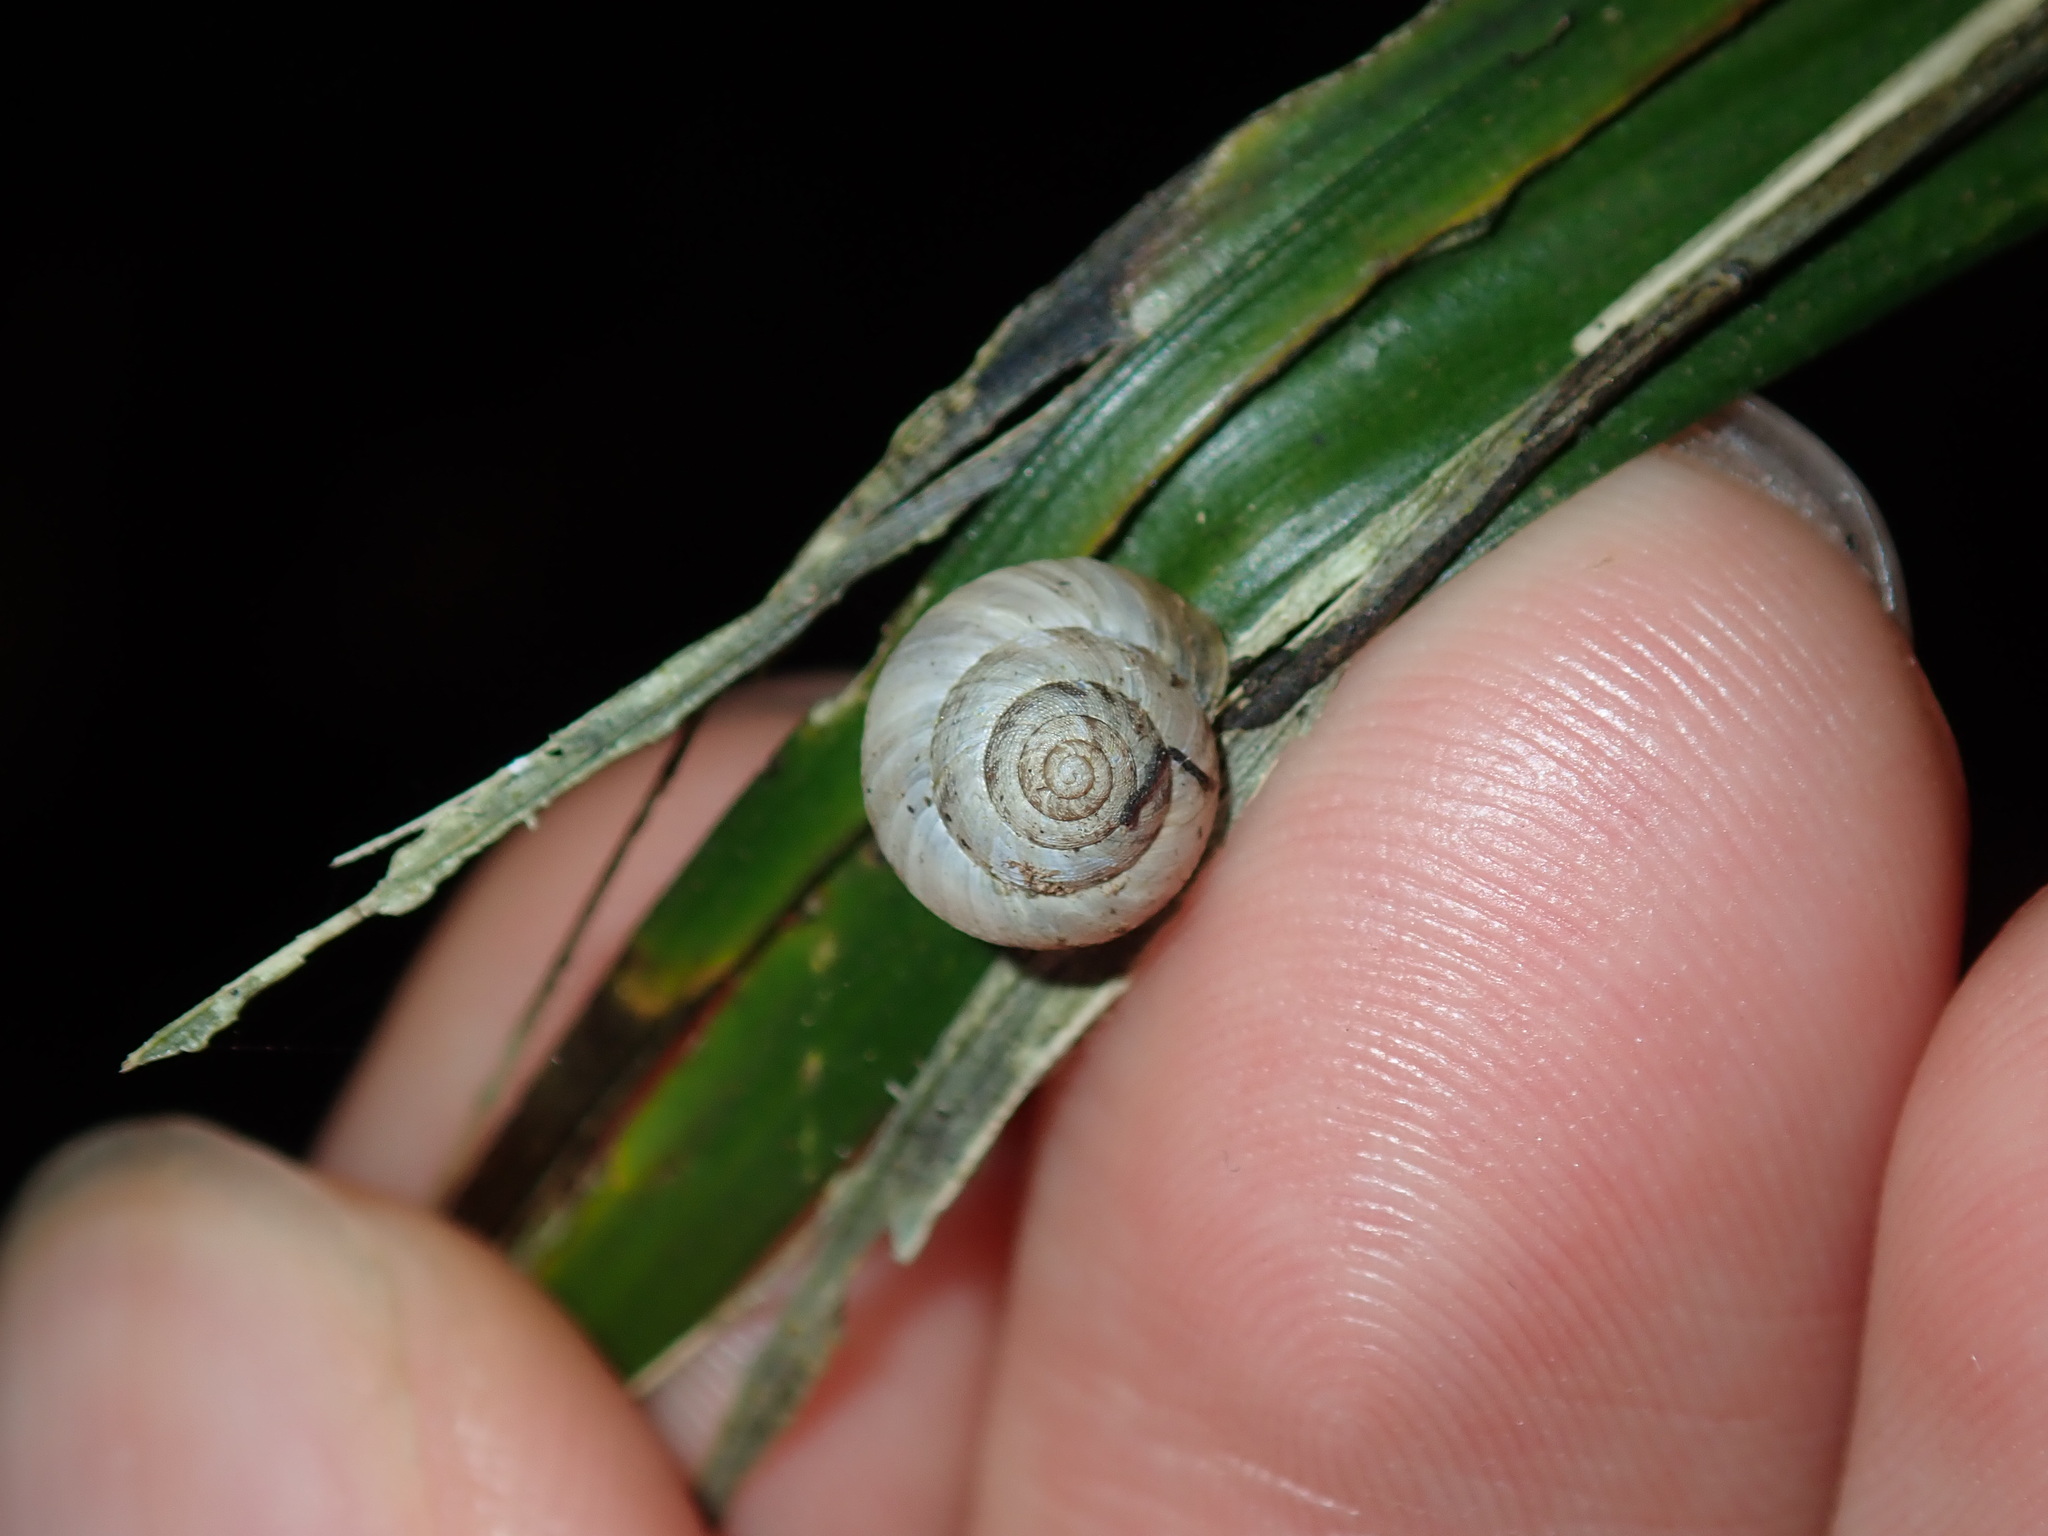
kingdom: Animalia
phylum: Mollusca
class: Gastropoda
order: Stylommatophora
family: Charopidae
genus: Hedleyoconcha
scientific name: Hedleyoconcha delta
